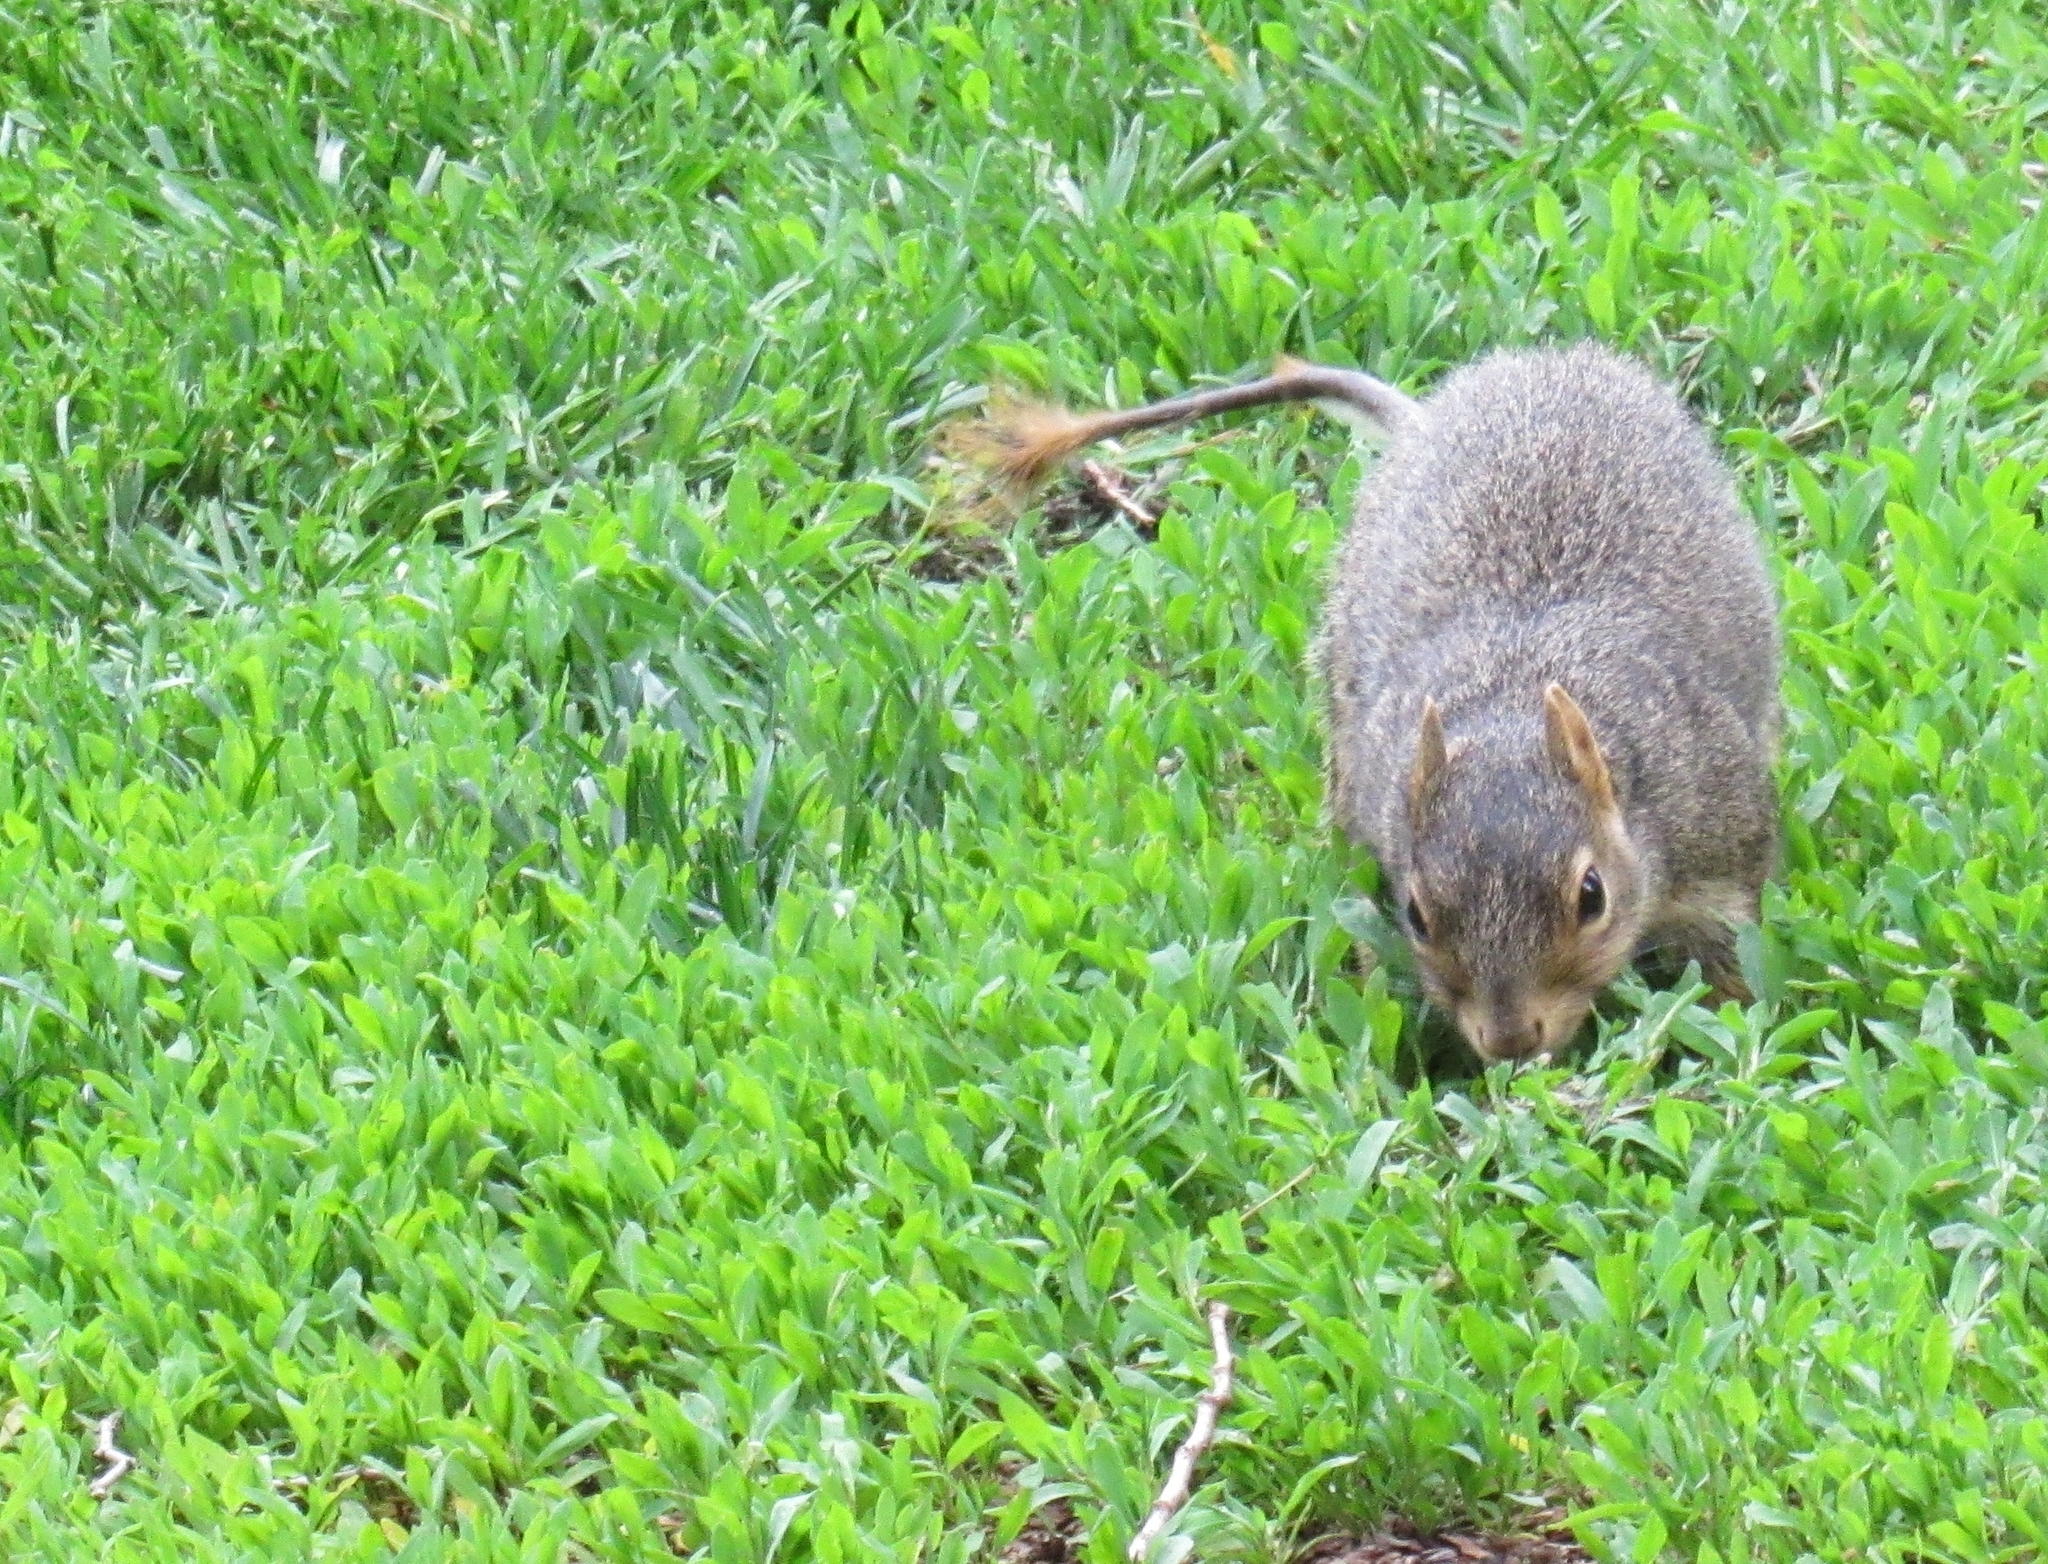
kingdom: Animalia
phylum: Chordata
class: Mammalia
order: Rodentia
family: Sciuridae
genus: Sciurus
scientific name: Sciurus niger
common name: Fox squirrel
